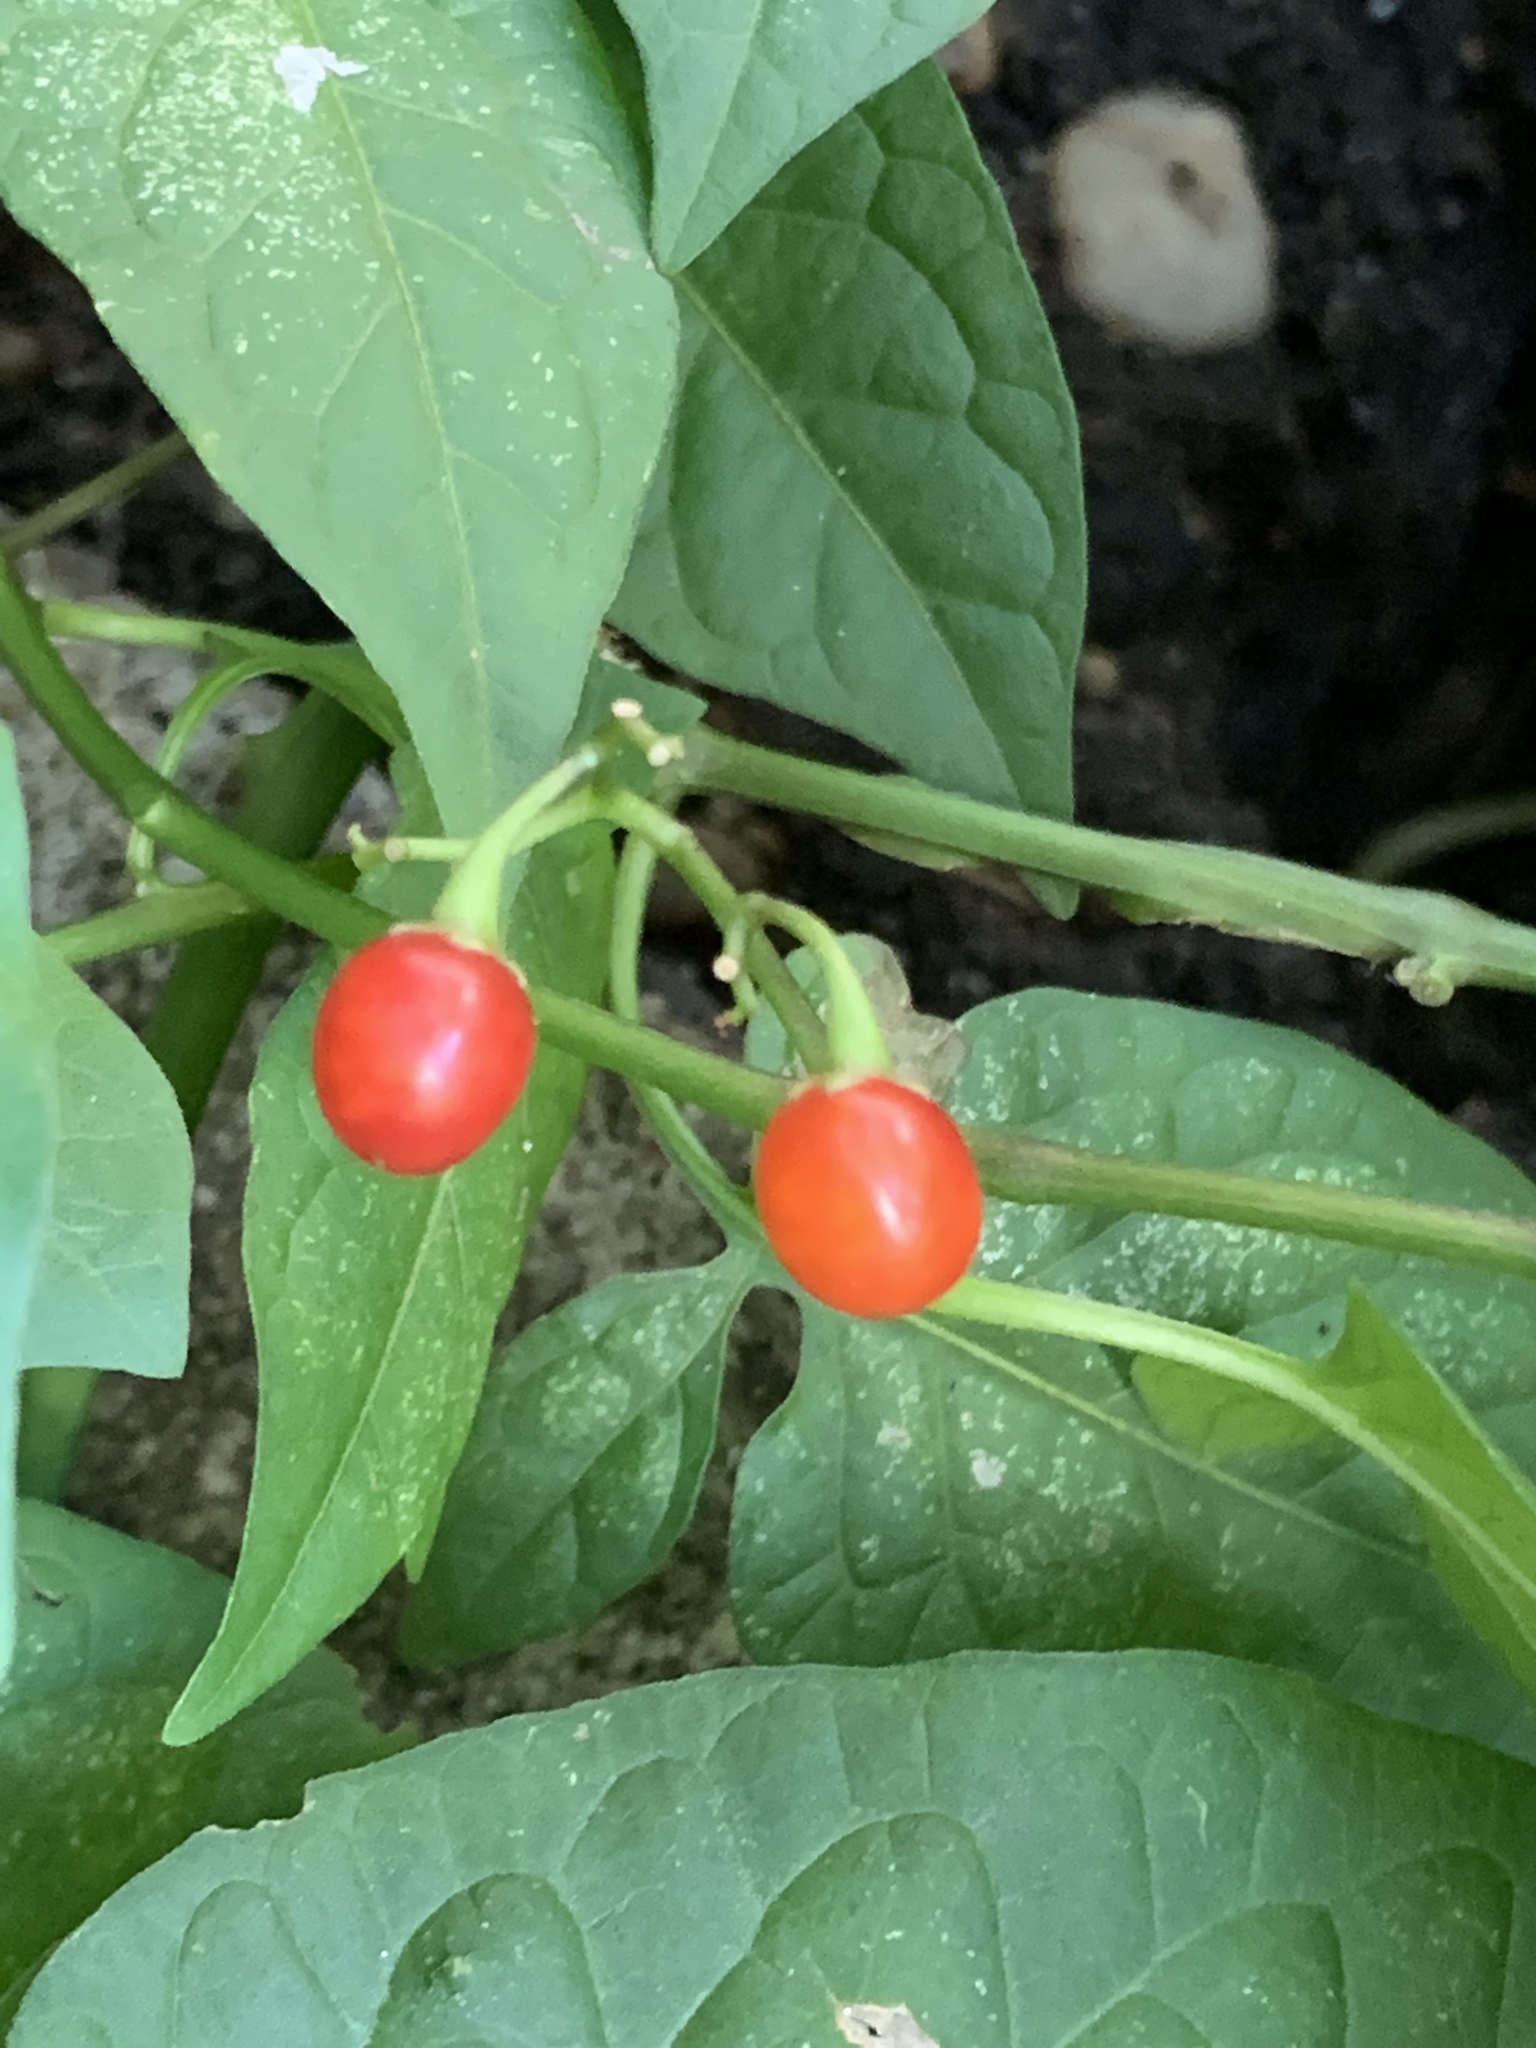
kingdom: Plantae
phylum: Tracheophyta
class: Magnoliopsida
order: Solanales
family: Solanaceae
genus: Solanum
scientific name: Solanum dulcamara
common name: Climbing nightshade
